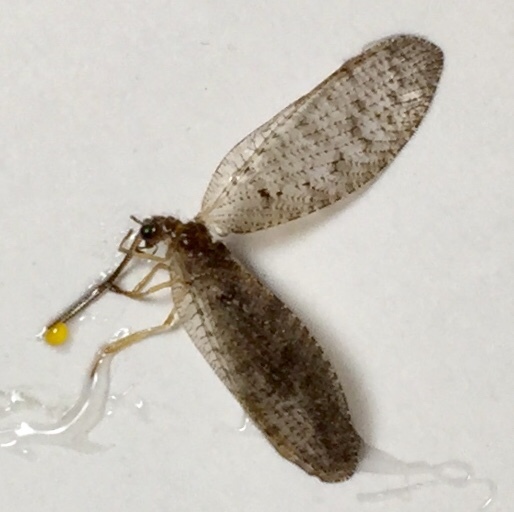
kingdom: Animalia
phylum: Arthropoda
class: Insecta
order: Neuroptera
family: Hemerobiidae
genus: Hemerobius
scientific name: Hemerobius stigma
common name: Brown pine lacewing
